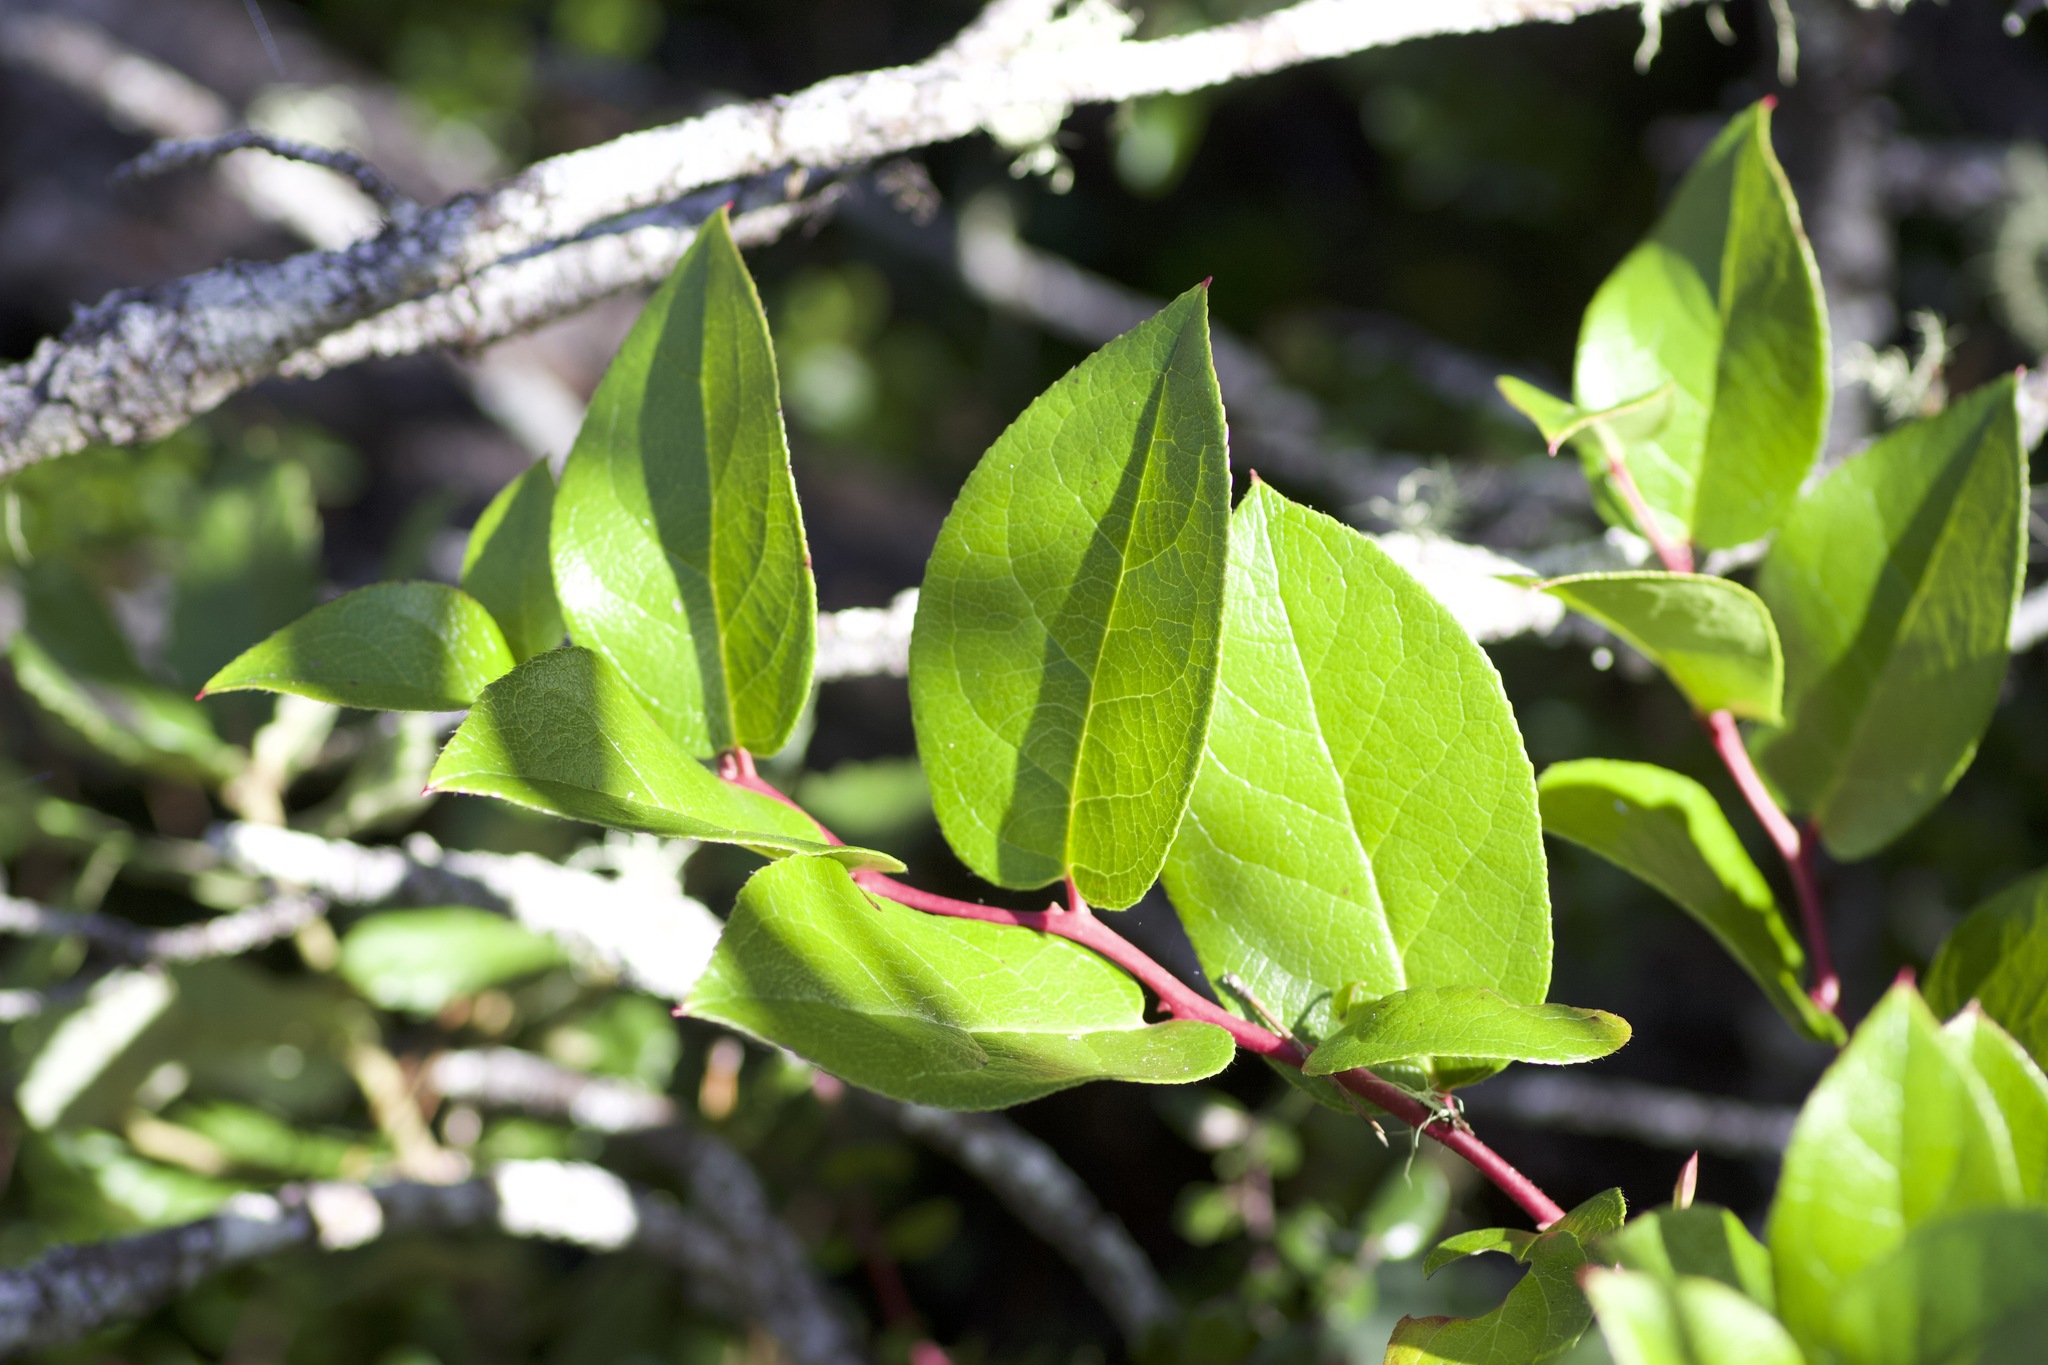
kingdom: Plantae
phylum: Tracheophyta
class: Magnoliopsida
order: Ericales
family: Ericaceae
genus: Gaultheria
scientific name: Gaultheria shallon
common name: Shallon
